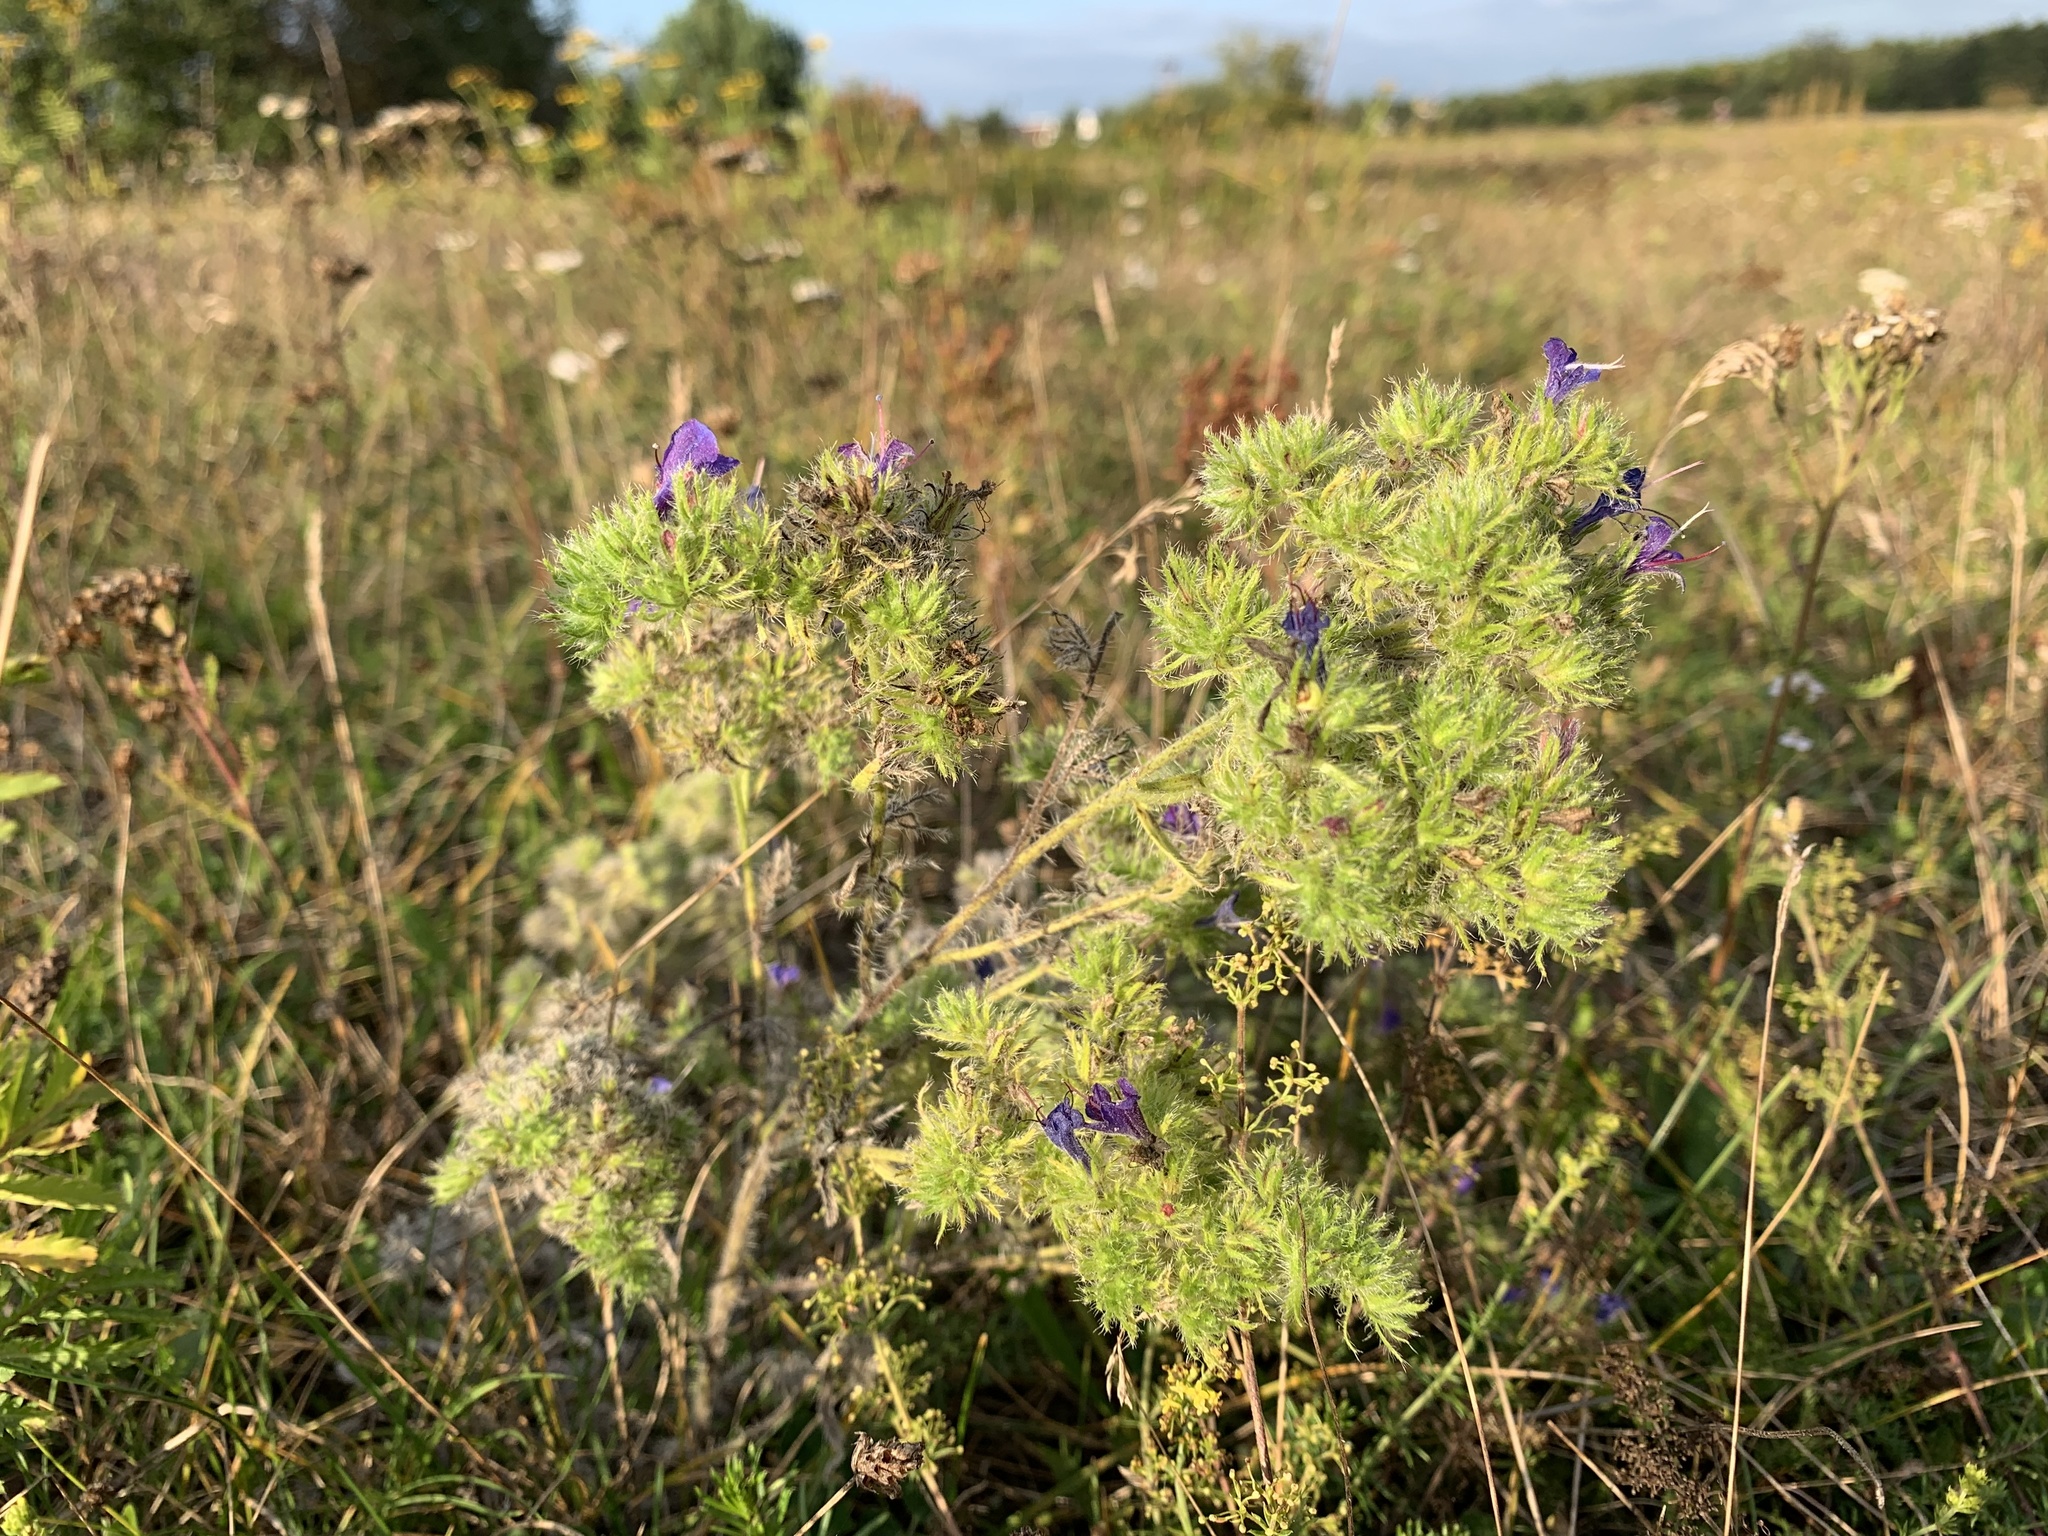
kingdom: Animalia
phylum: Arthropoda
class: Arachnida
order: Trombidiformes
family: Eriophyidae
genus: Aceria
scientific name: Aceria echii
